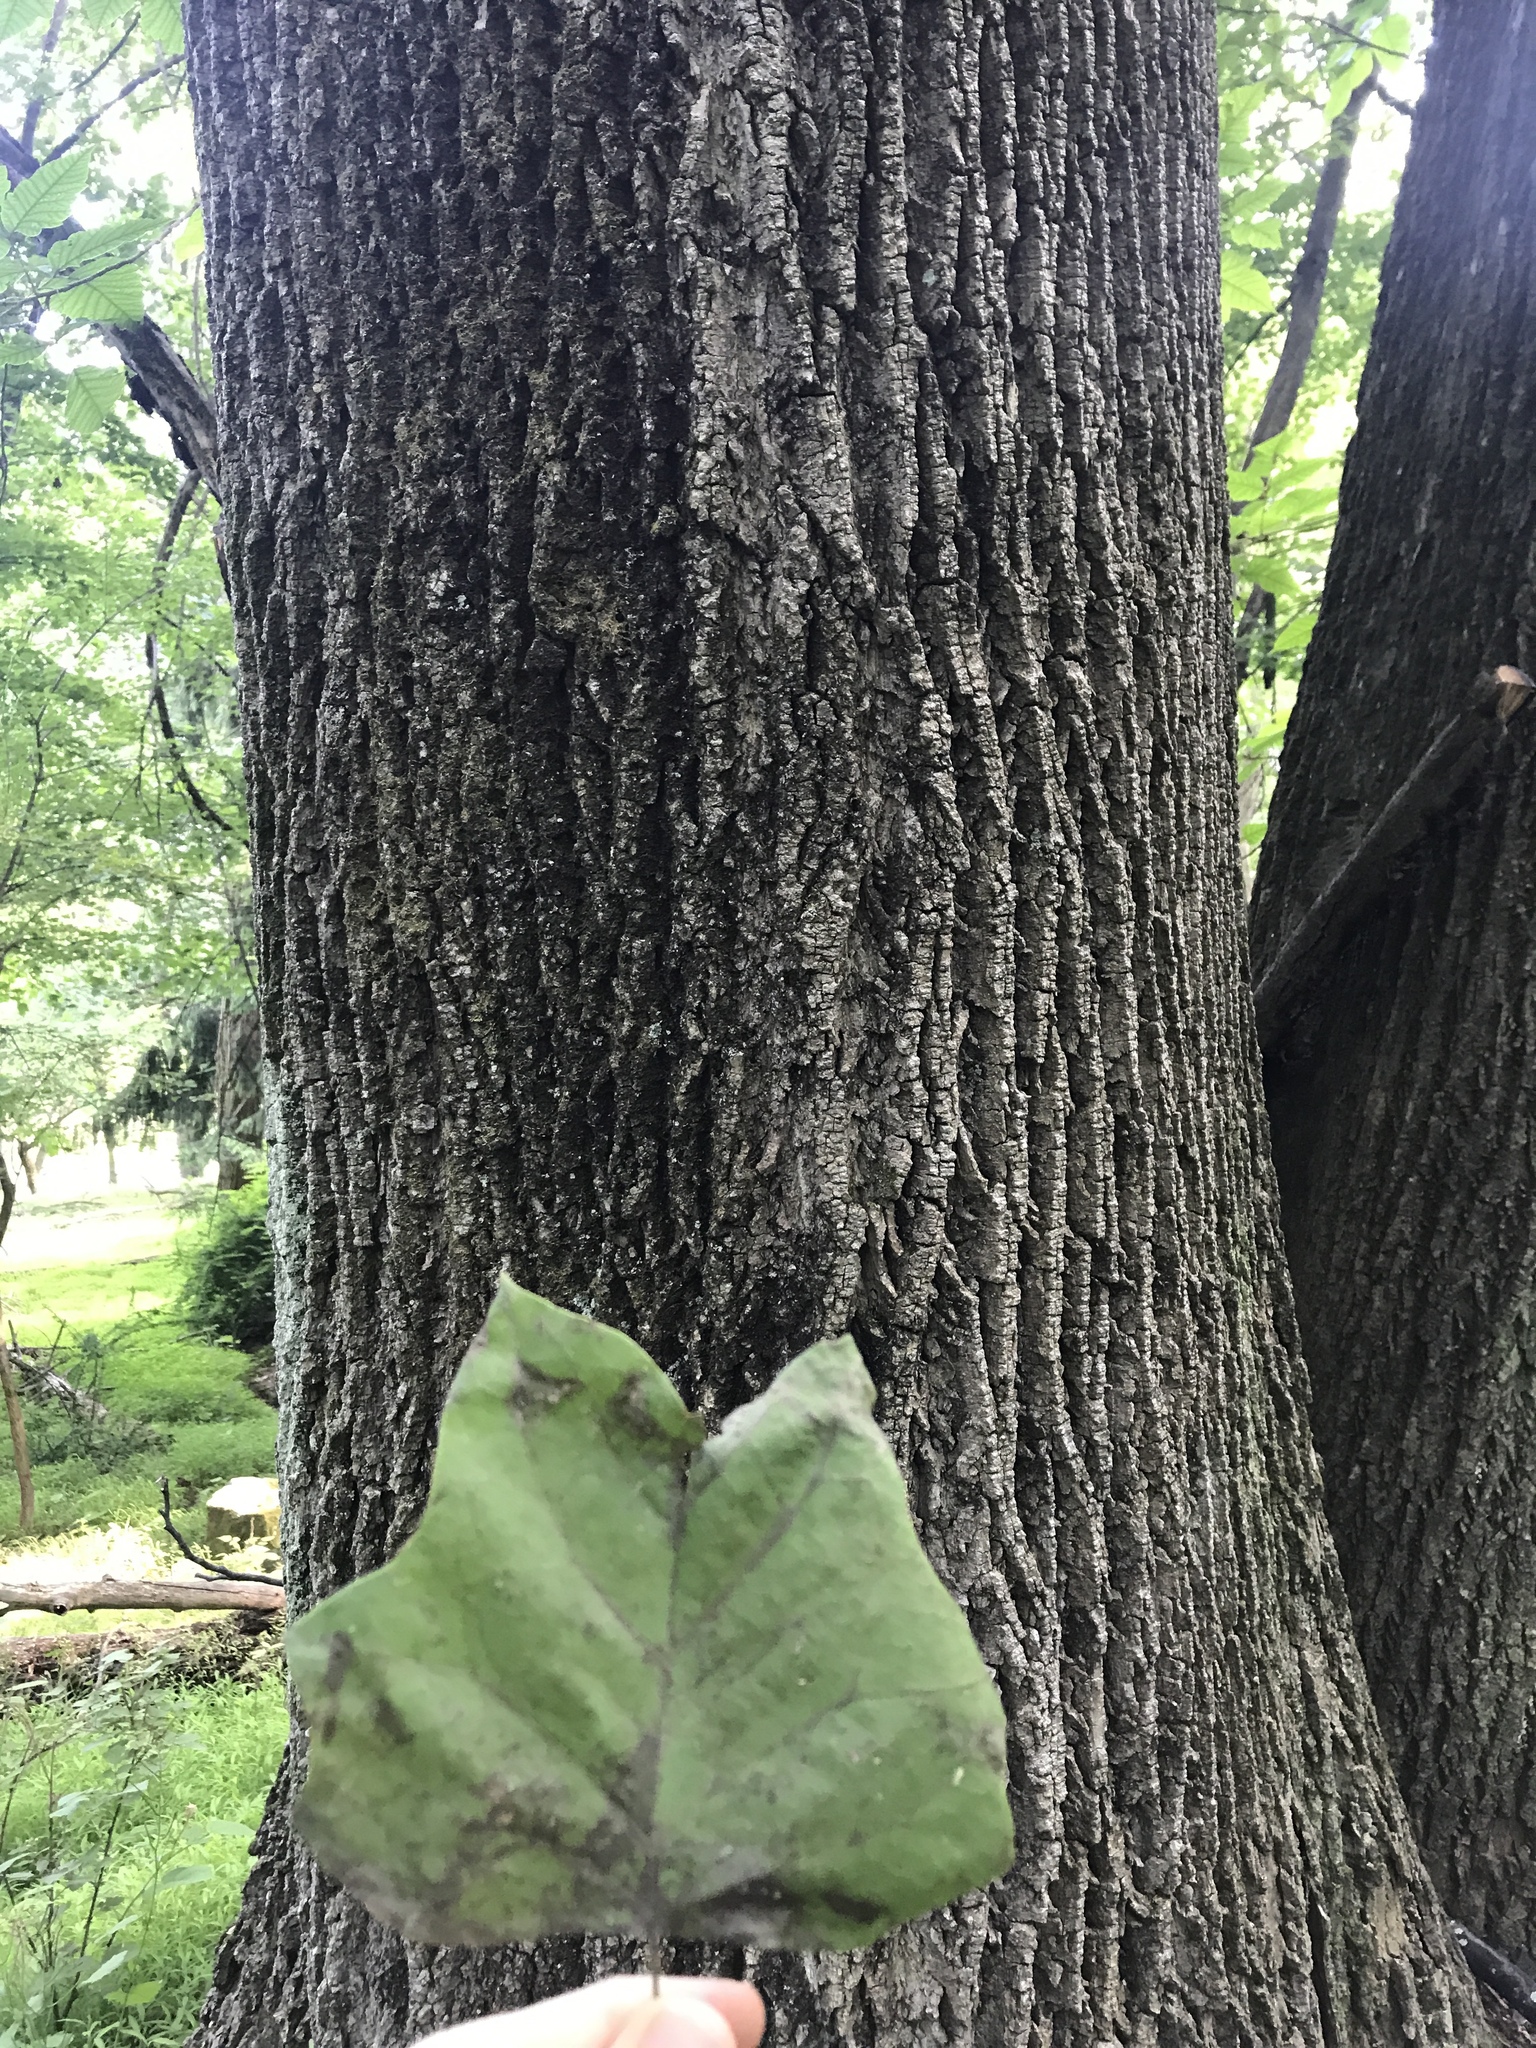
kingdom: Plantae
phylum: Tracheophyta
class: Magnoliopsida
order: Magnoliales
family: Magnoliaceae
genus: Liriodendron
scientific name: Liriodendron tulipifera
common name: Tulip tree
